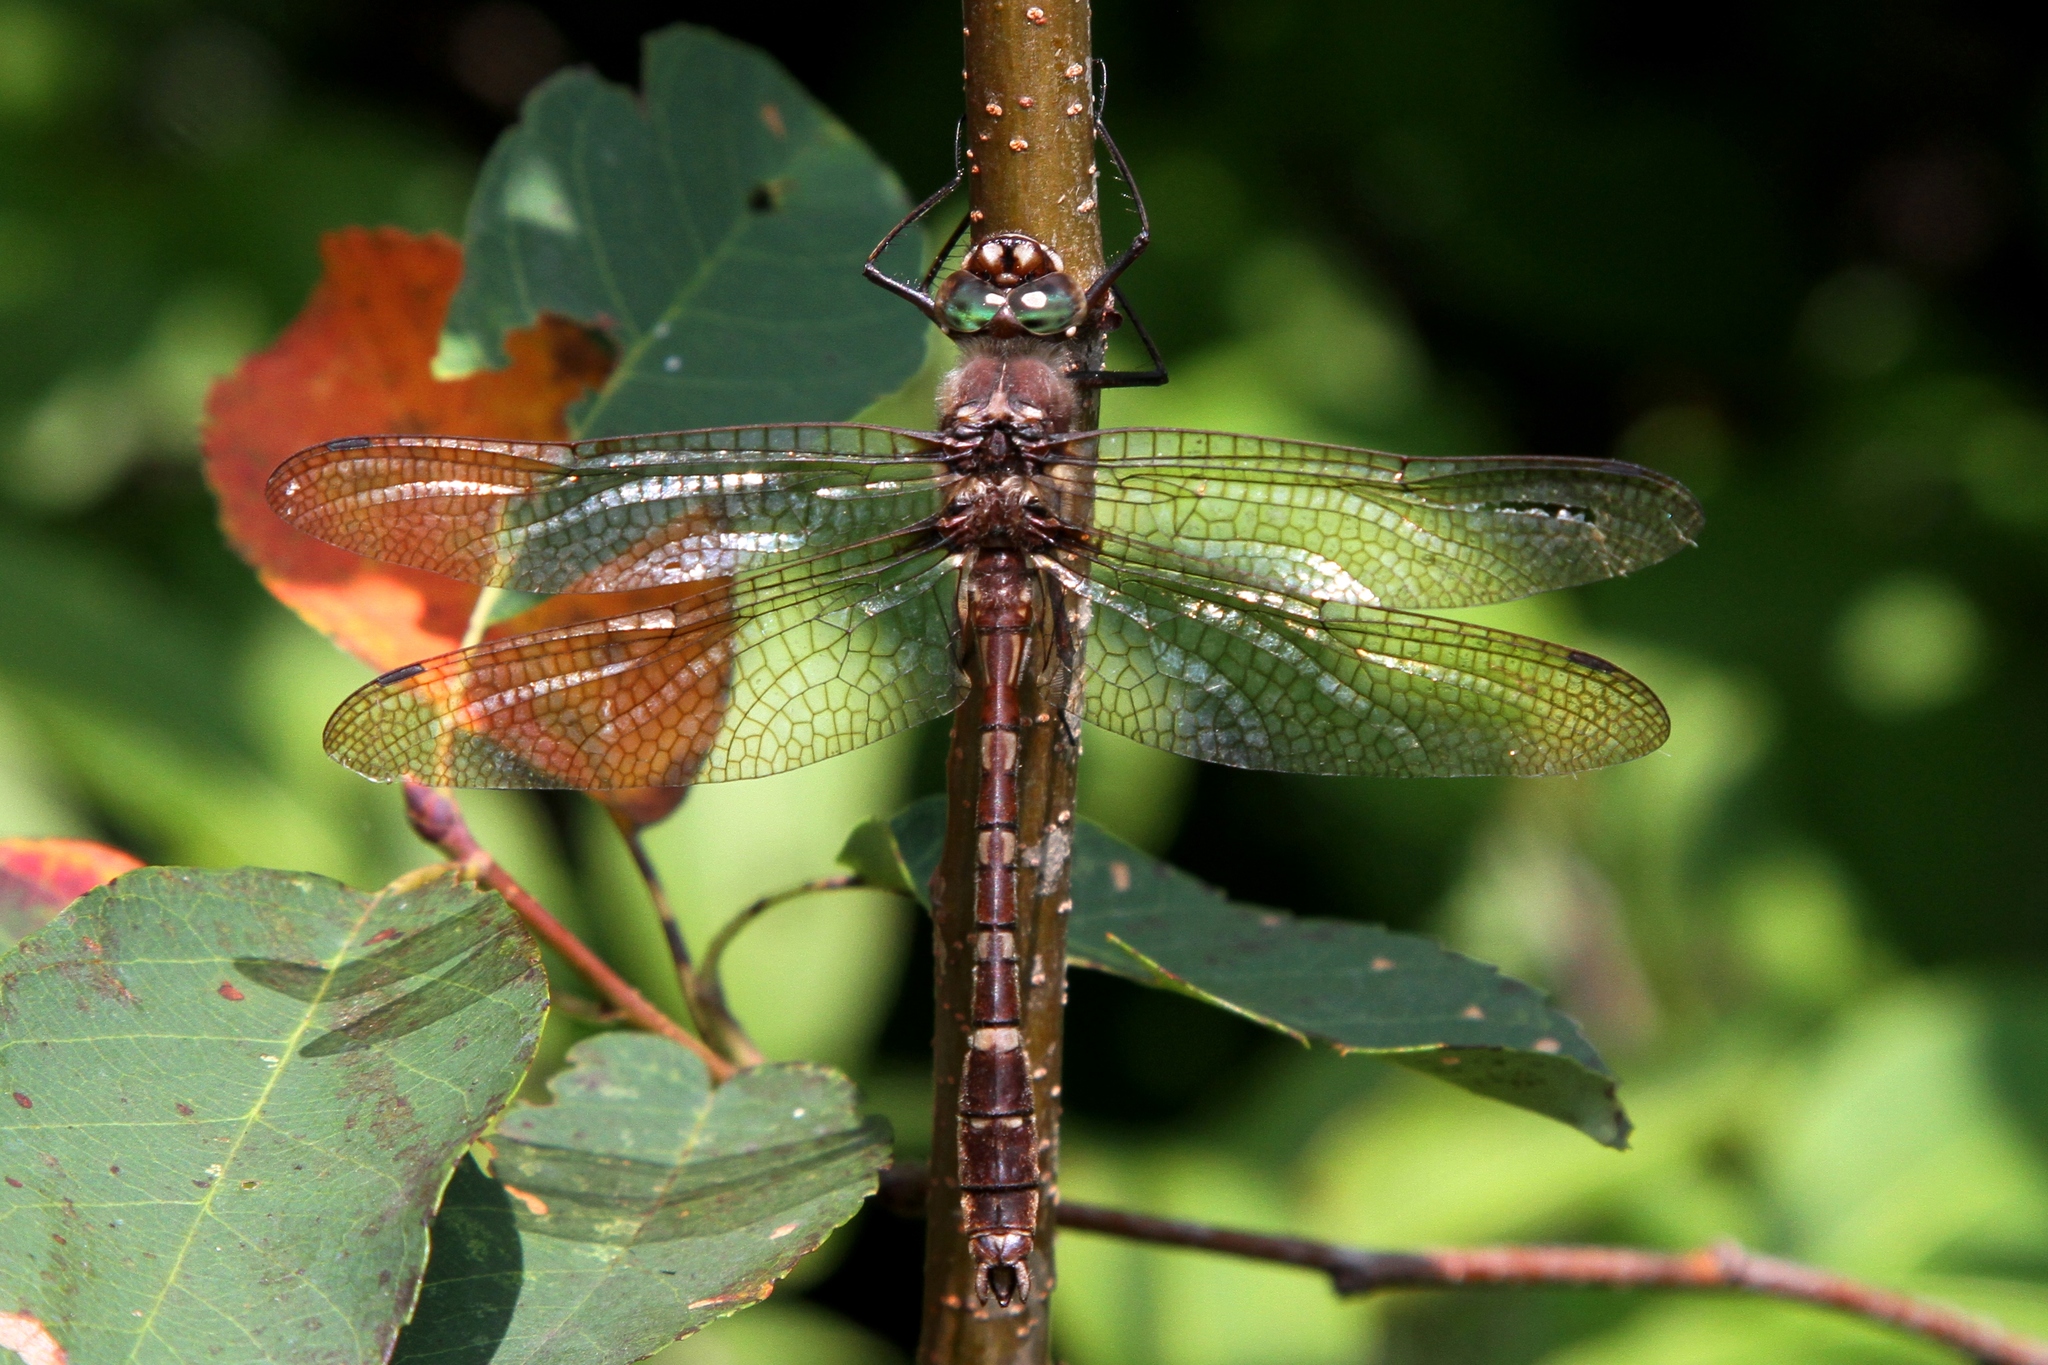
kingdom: Animalia
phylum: Arthropoda
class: Insecta
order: Odonata
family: Macromiidae
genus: Didymops
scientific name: Didymops transversa
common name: Stream cruiser
